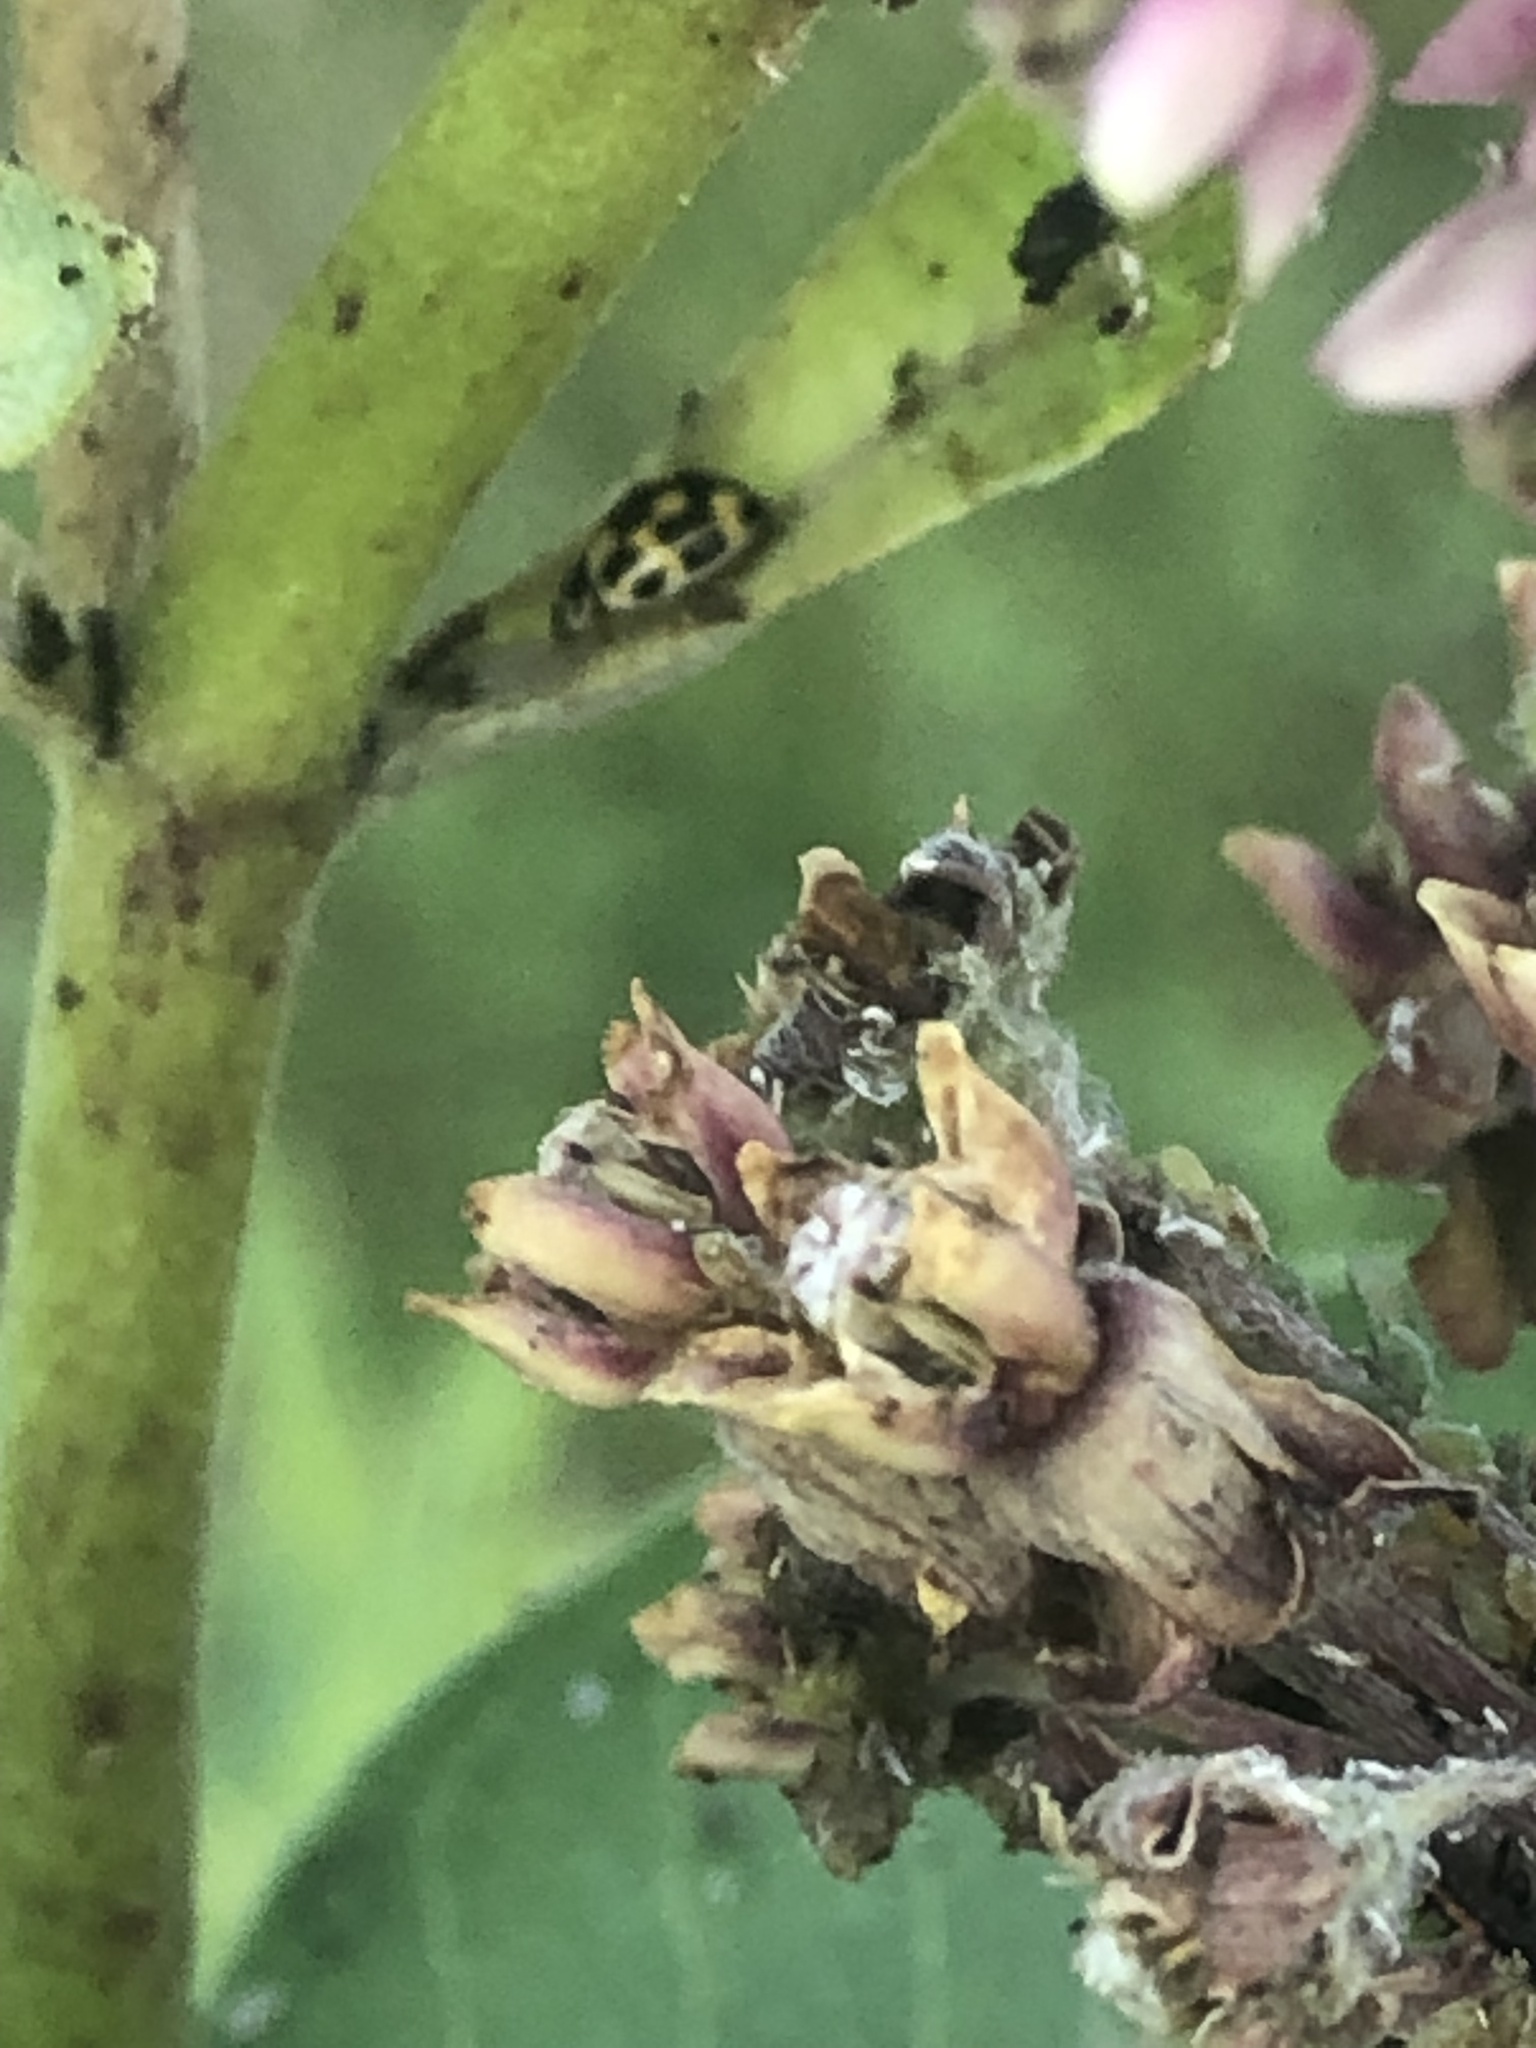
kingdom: Animalia
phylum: Arthropoda
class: Insecta
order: Coleoptera
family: Coccinellidae
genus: Propylaea
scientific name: Propylaea quatuordecimpunctata
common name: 14-spotted ladybird beetle
